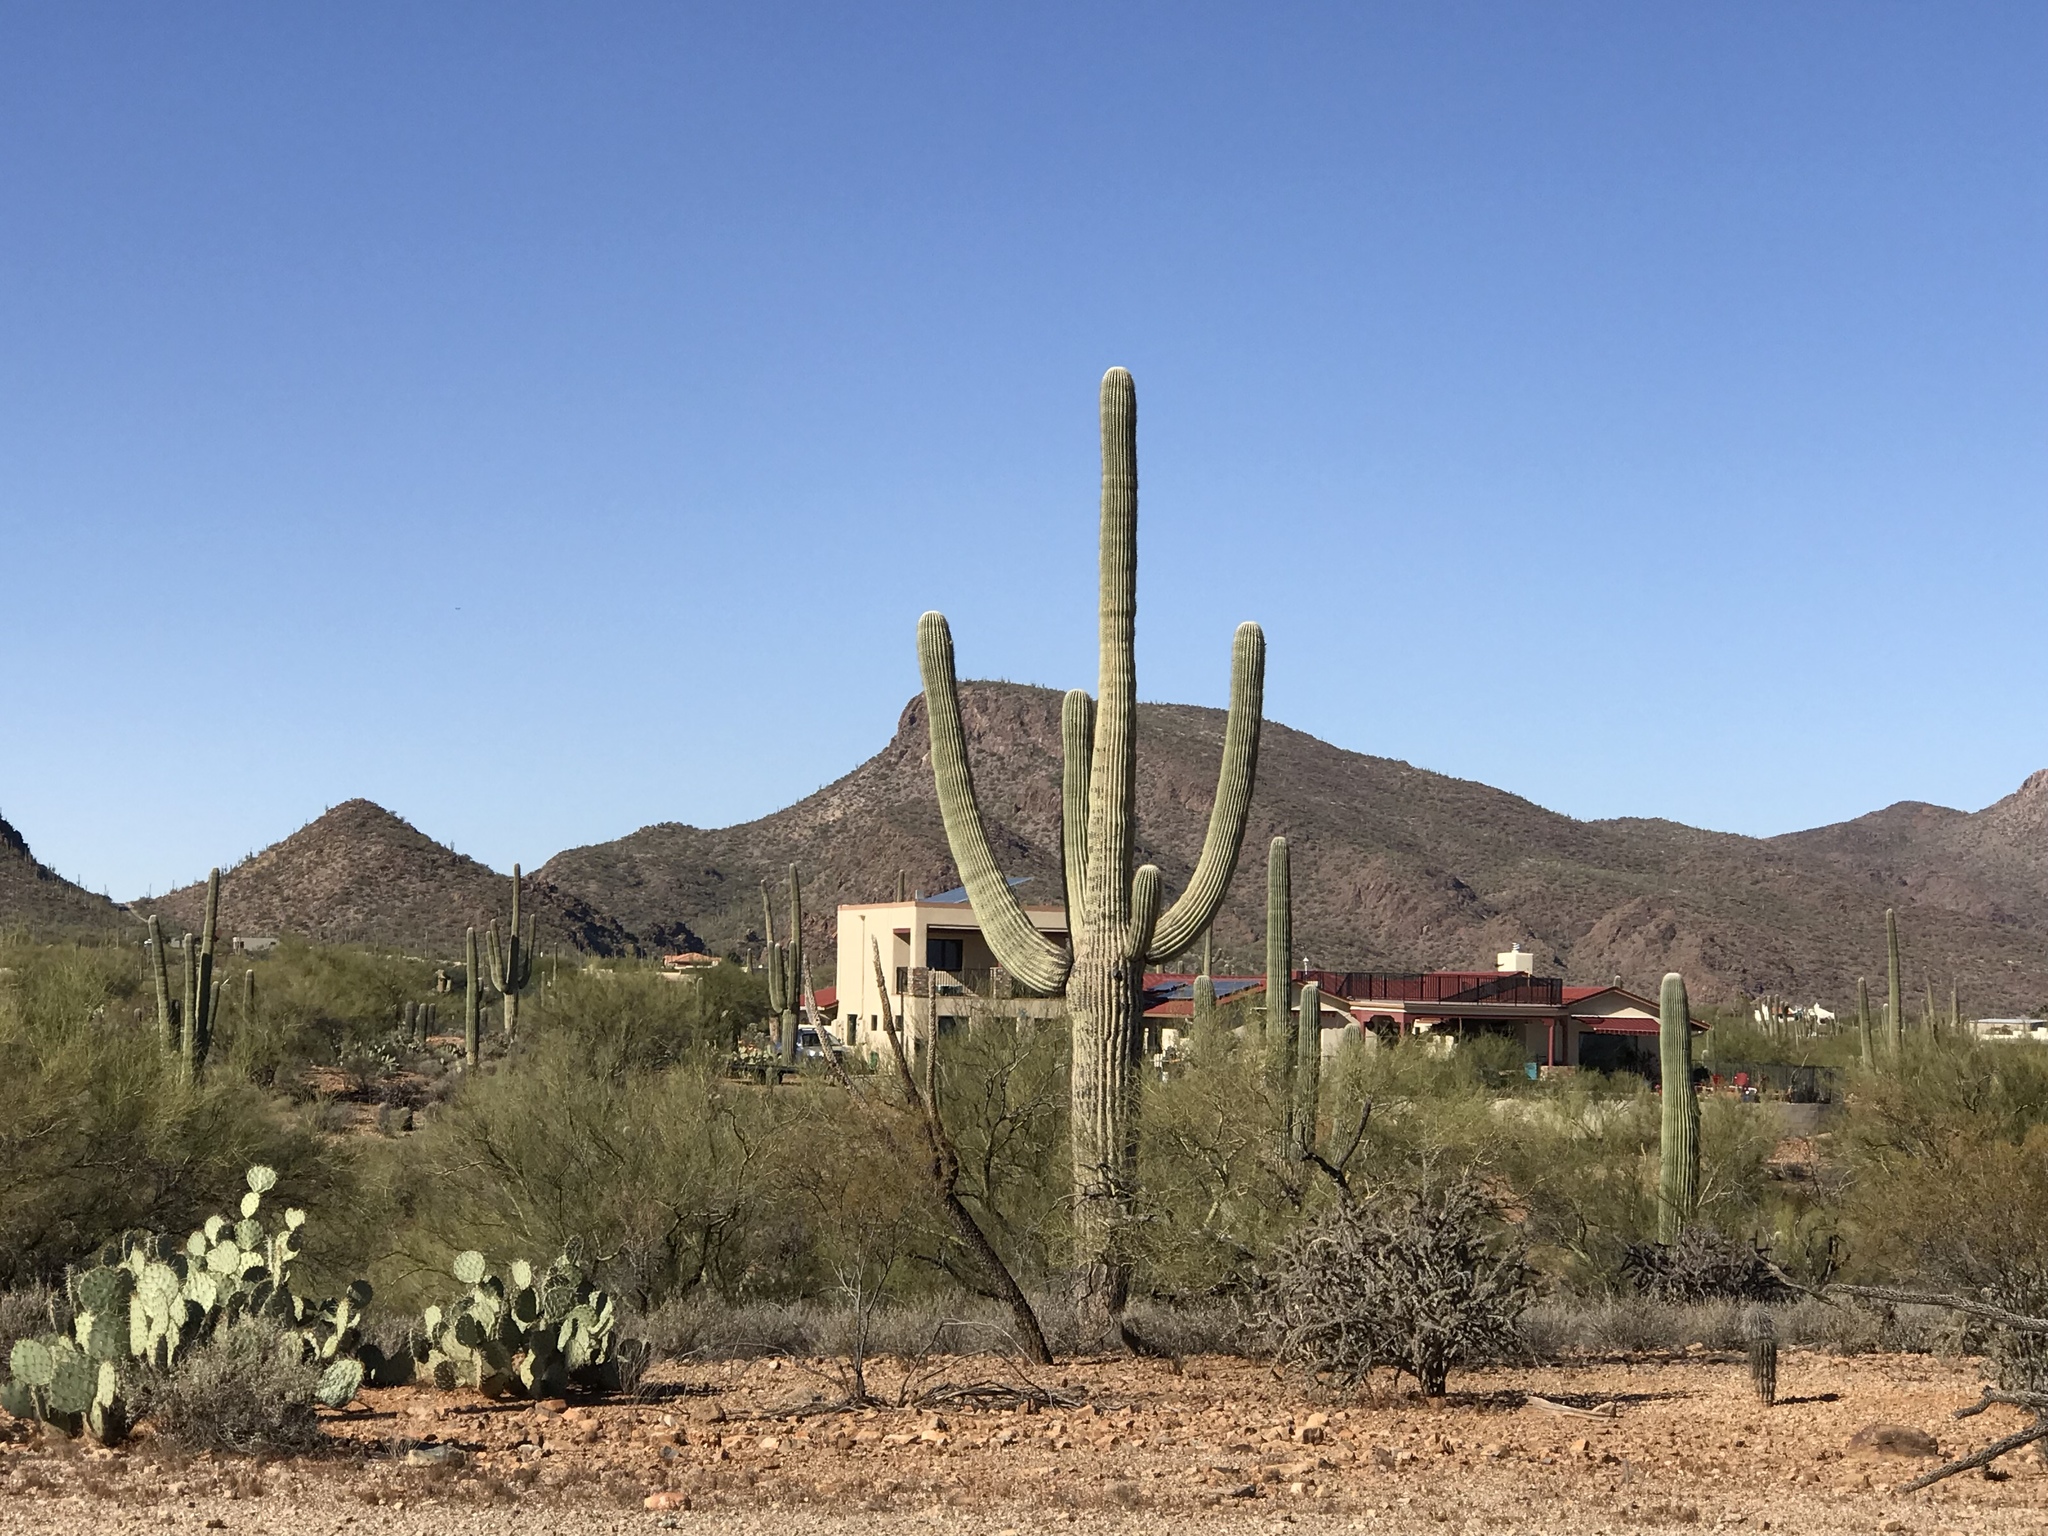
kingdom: Plantae
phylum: Tracheophyta
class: Magnoliopsida
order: Caryophyllales
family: Cactaceae
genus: Carnegiea
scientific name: Carnegiea gigantea
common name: Saguaro
